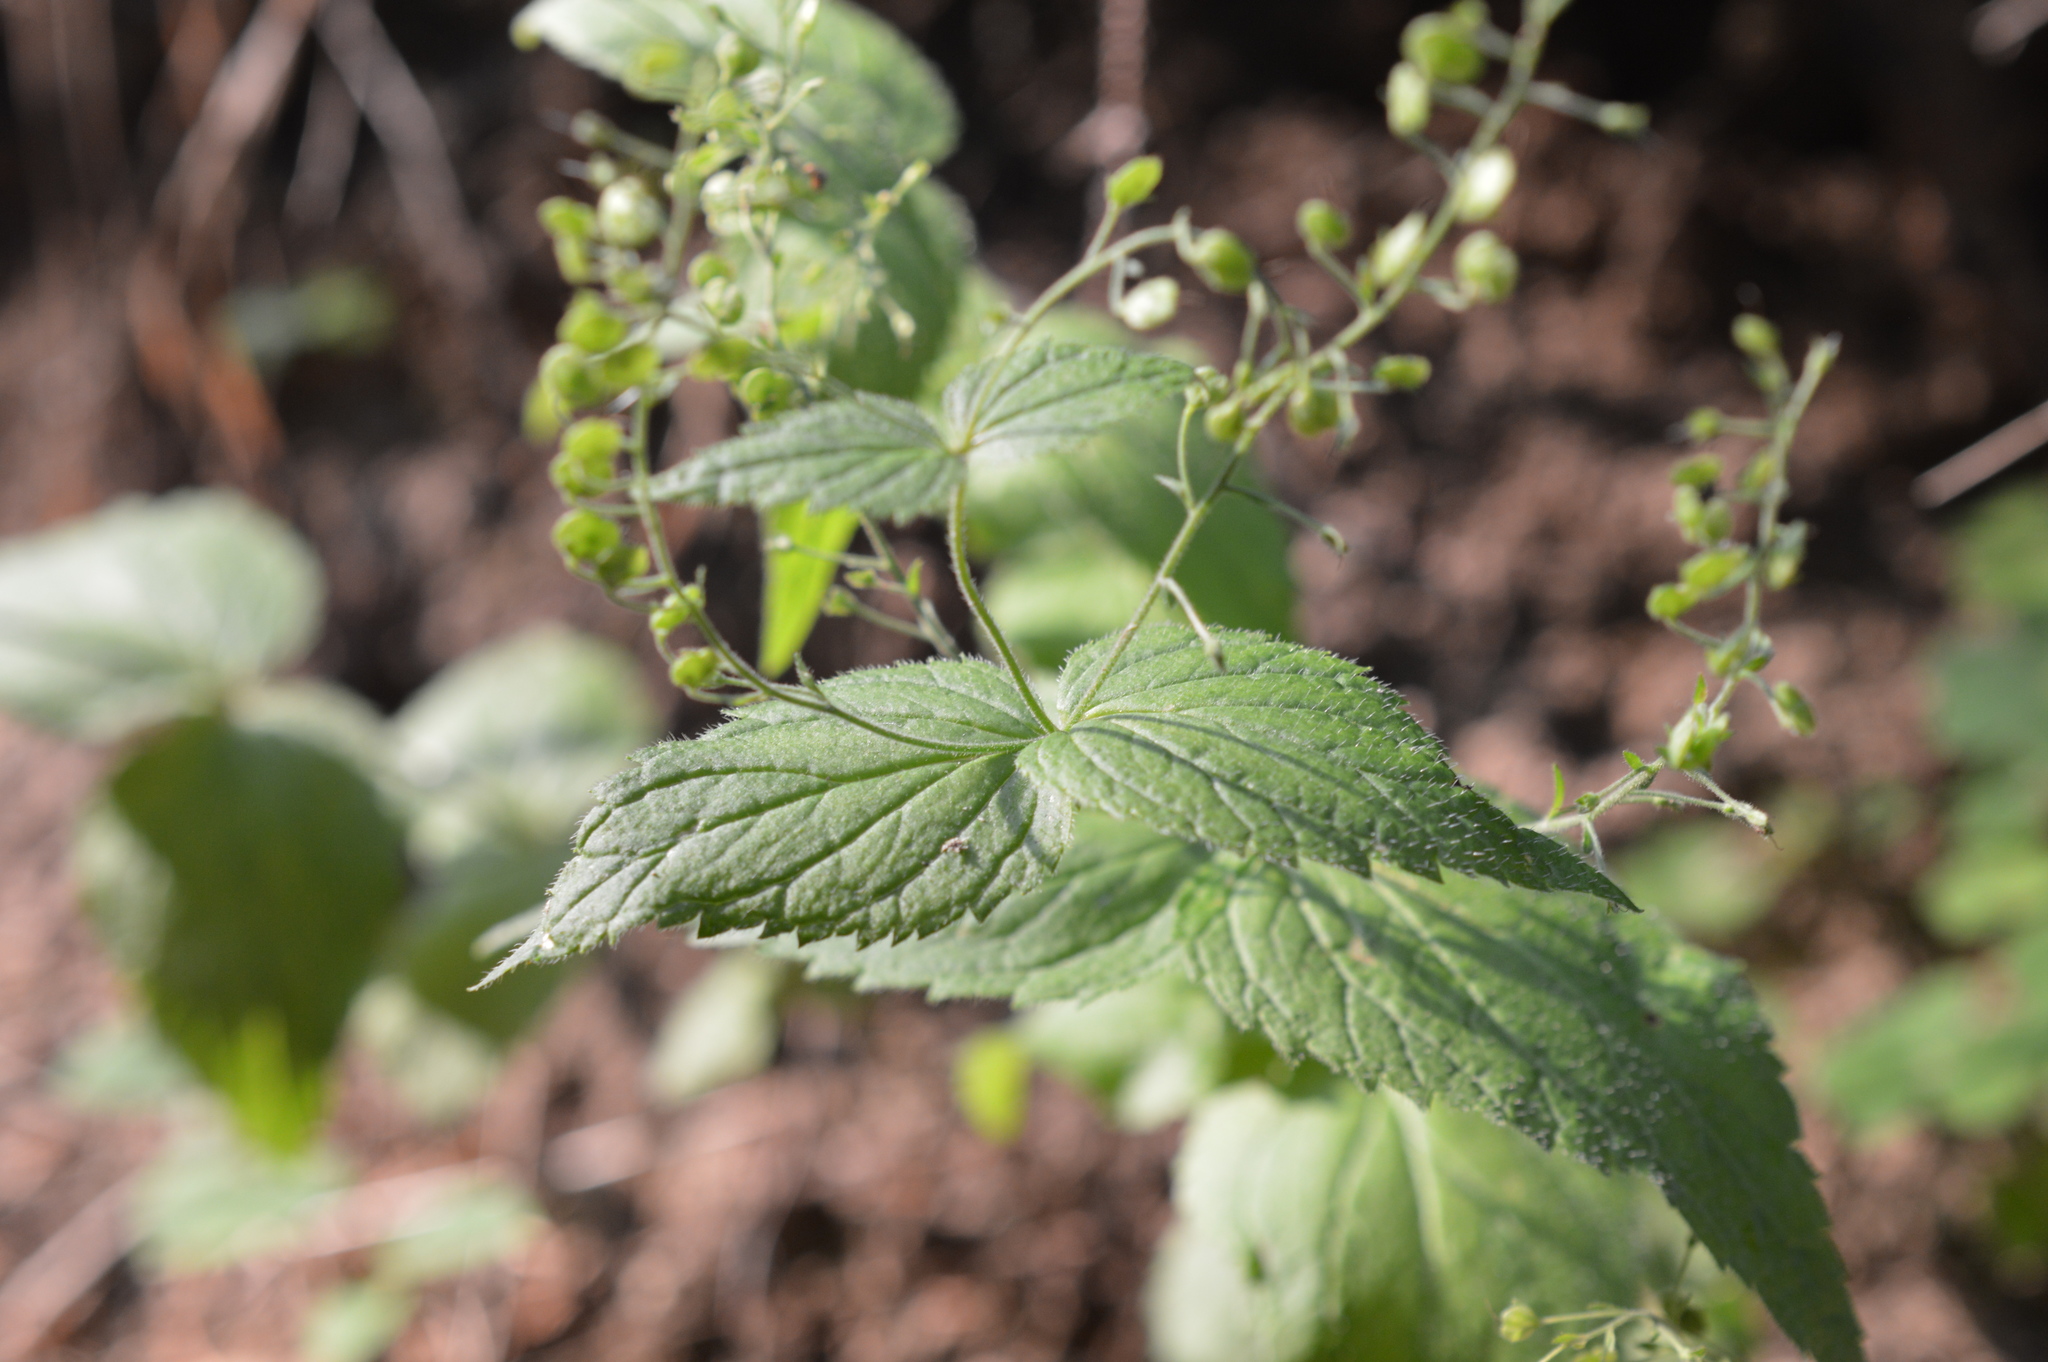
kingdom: Plantae
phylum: Tracheophyta
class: Magnoliopsida
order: Lamiales
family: Plantaginaceae
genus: Veronica
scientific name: Veronica urticifolia
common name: Nettle-leaf speedwell
